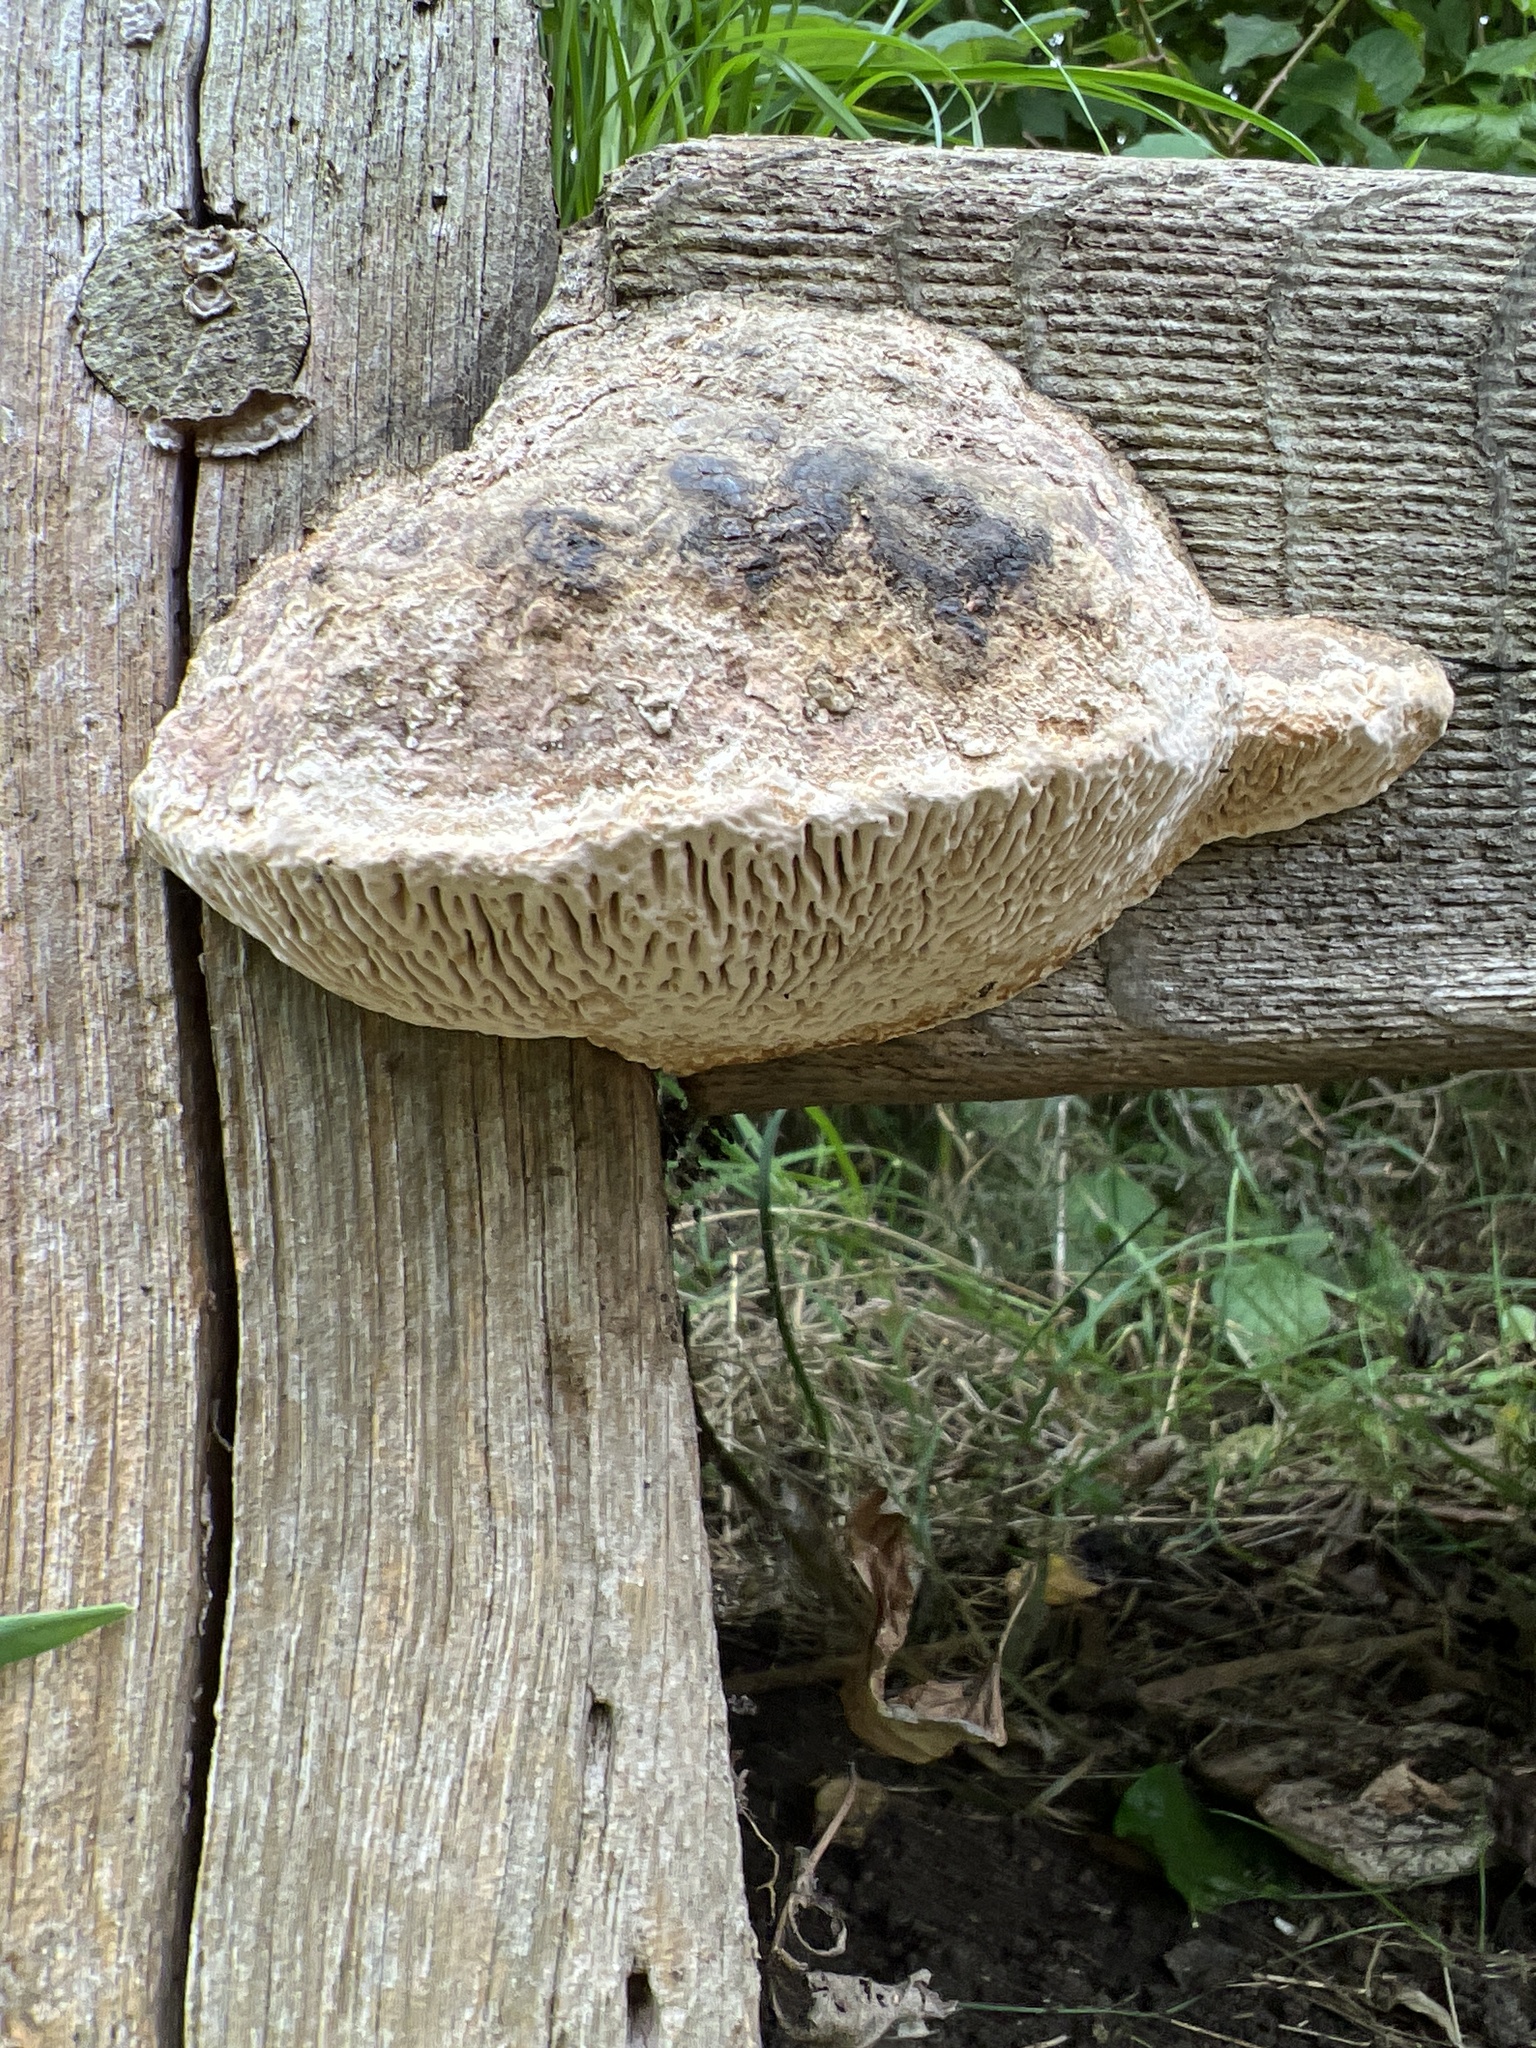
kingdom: Fungi
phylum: Basidiomycota
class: Agaricomycetes
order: Polyporales
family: Fomitopsidaceae
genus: Fomitopsis
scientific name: Fomitopsis
